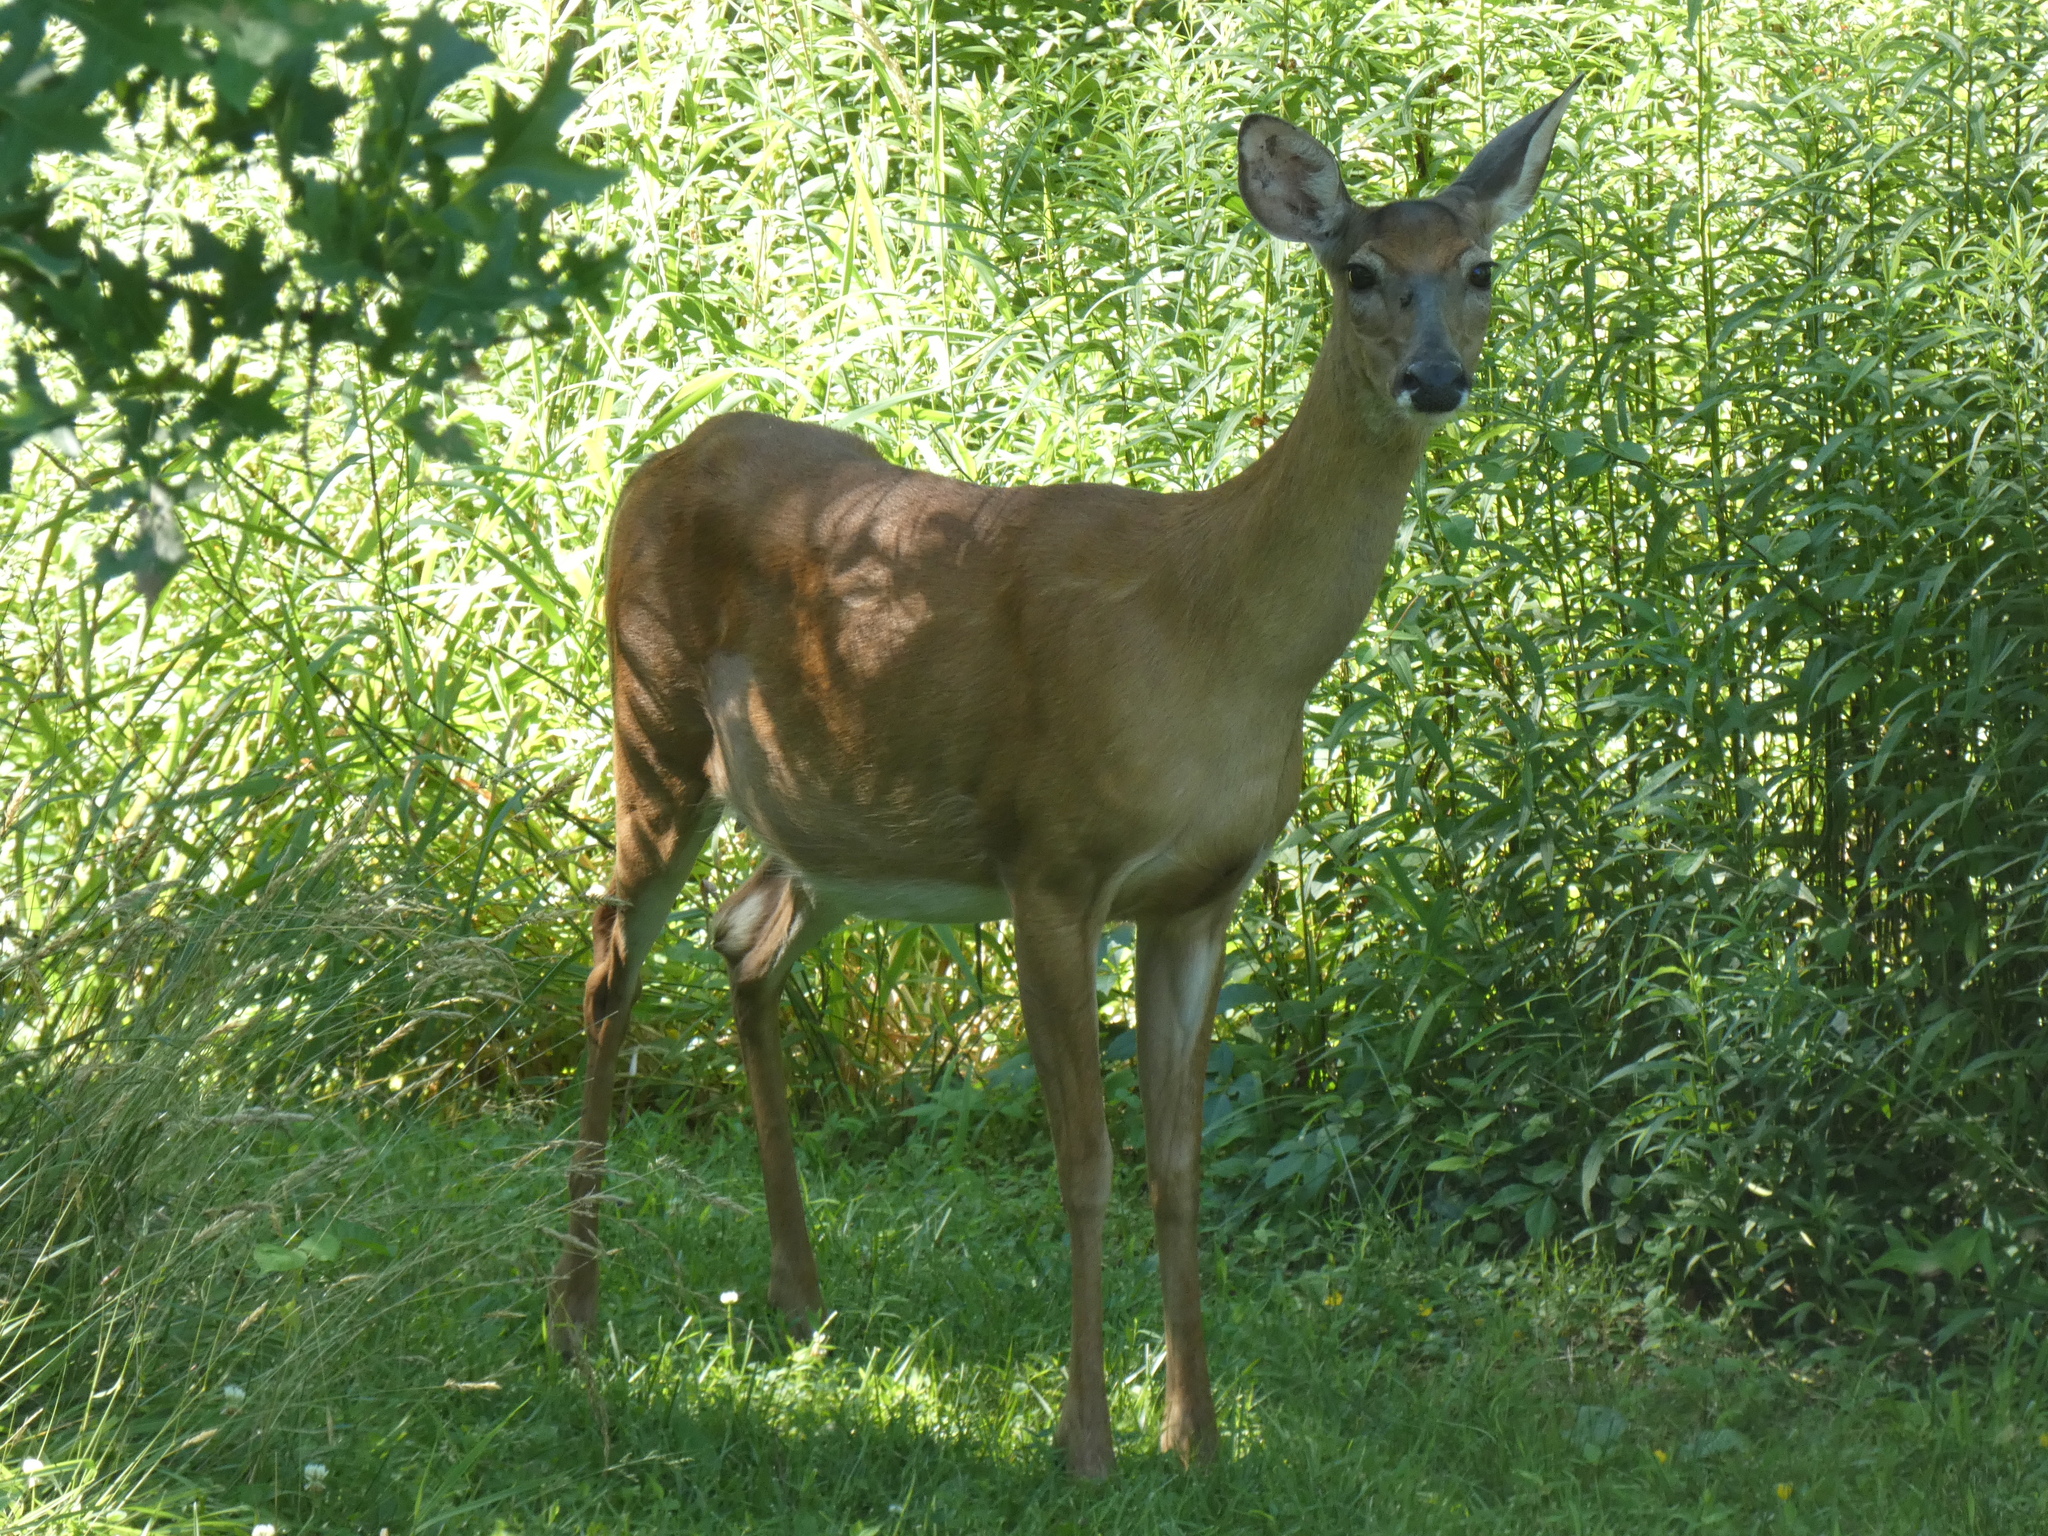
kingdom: Animalia
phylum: Chordata
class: Mammalia
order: Artiodactyla
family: Cervidae
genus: Odocoileus
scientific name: Odocoileus virginianus
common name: White-tailed deer
